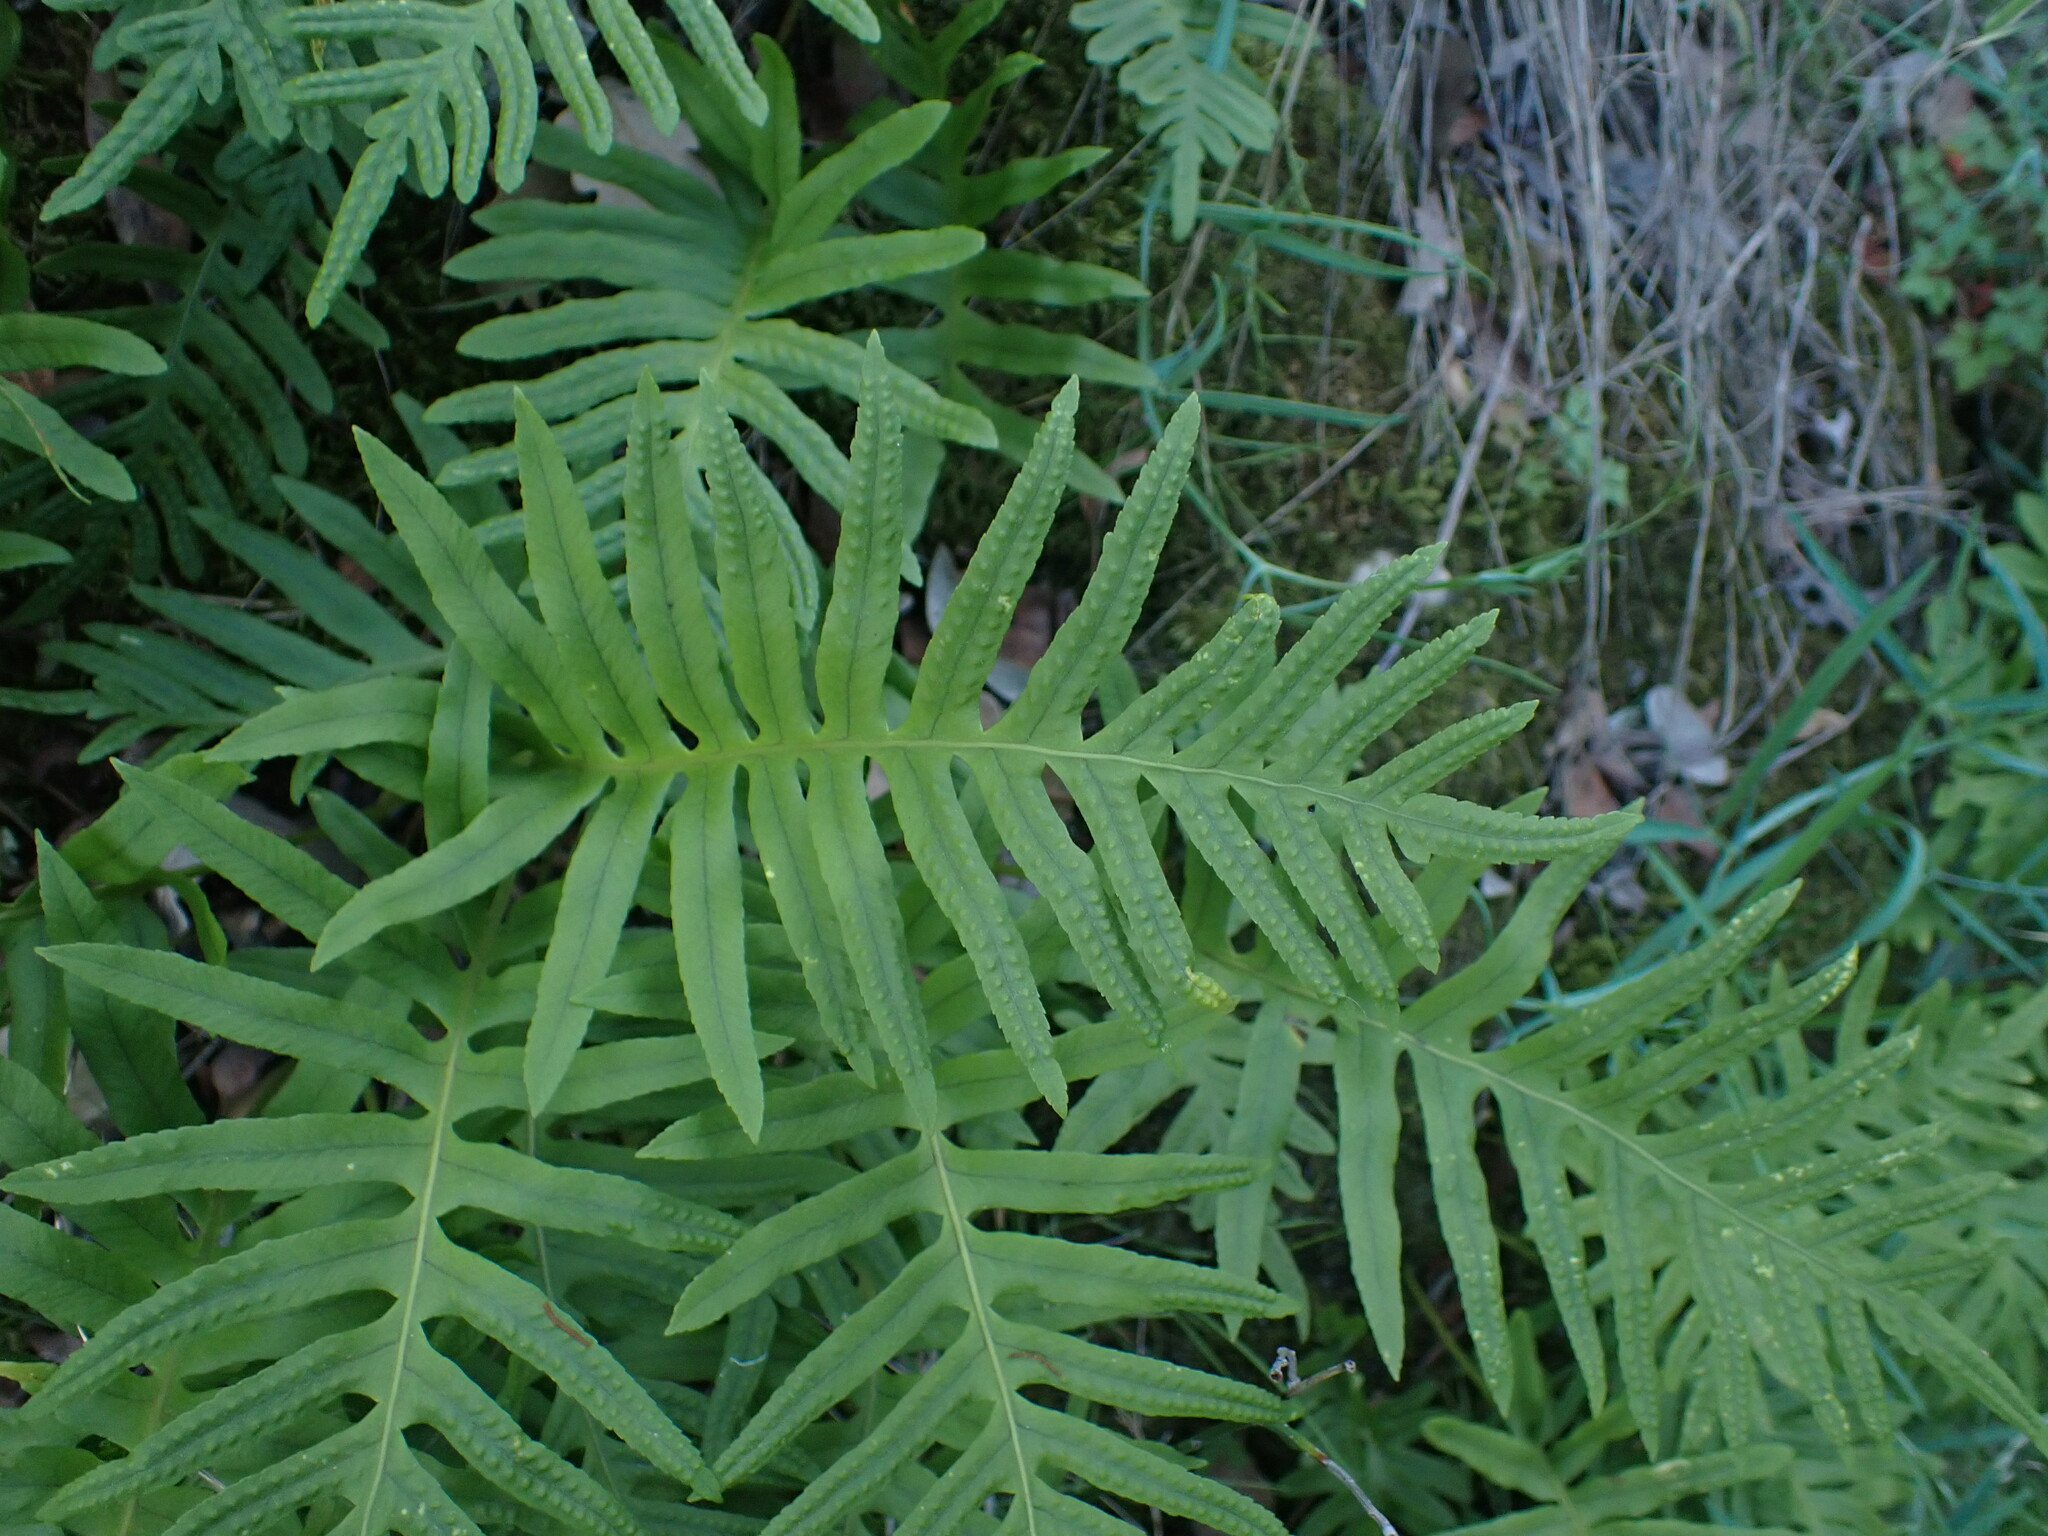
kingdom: Plantae
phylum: Tracheophyta
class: Polypodiopsida
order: Polypodiales
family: Polypodiaceae
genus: Polypodium
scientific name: Polypodium cambricum
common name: Southern polypody
